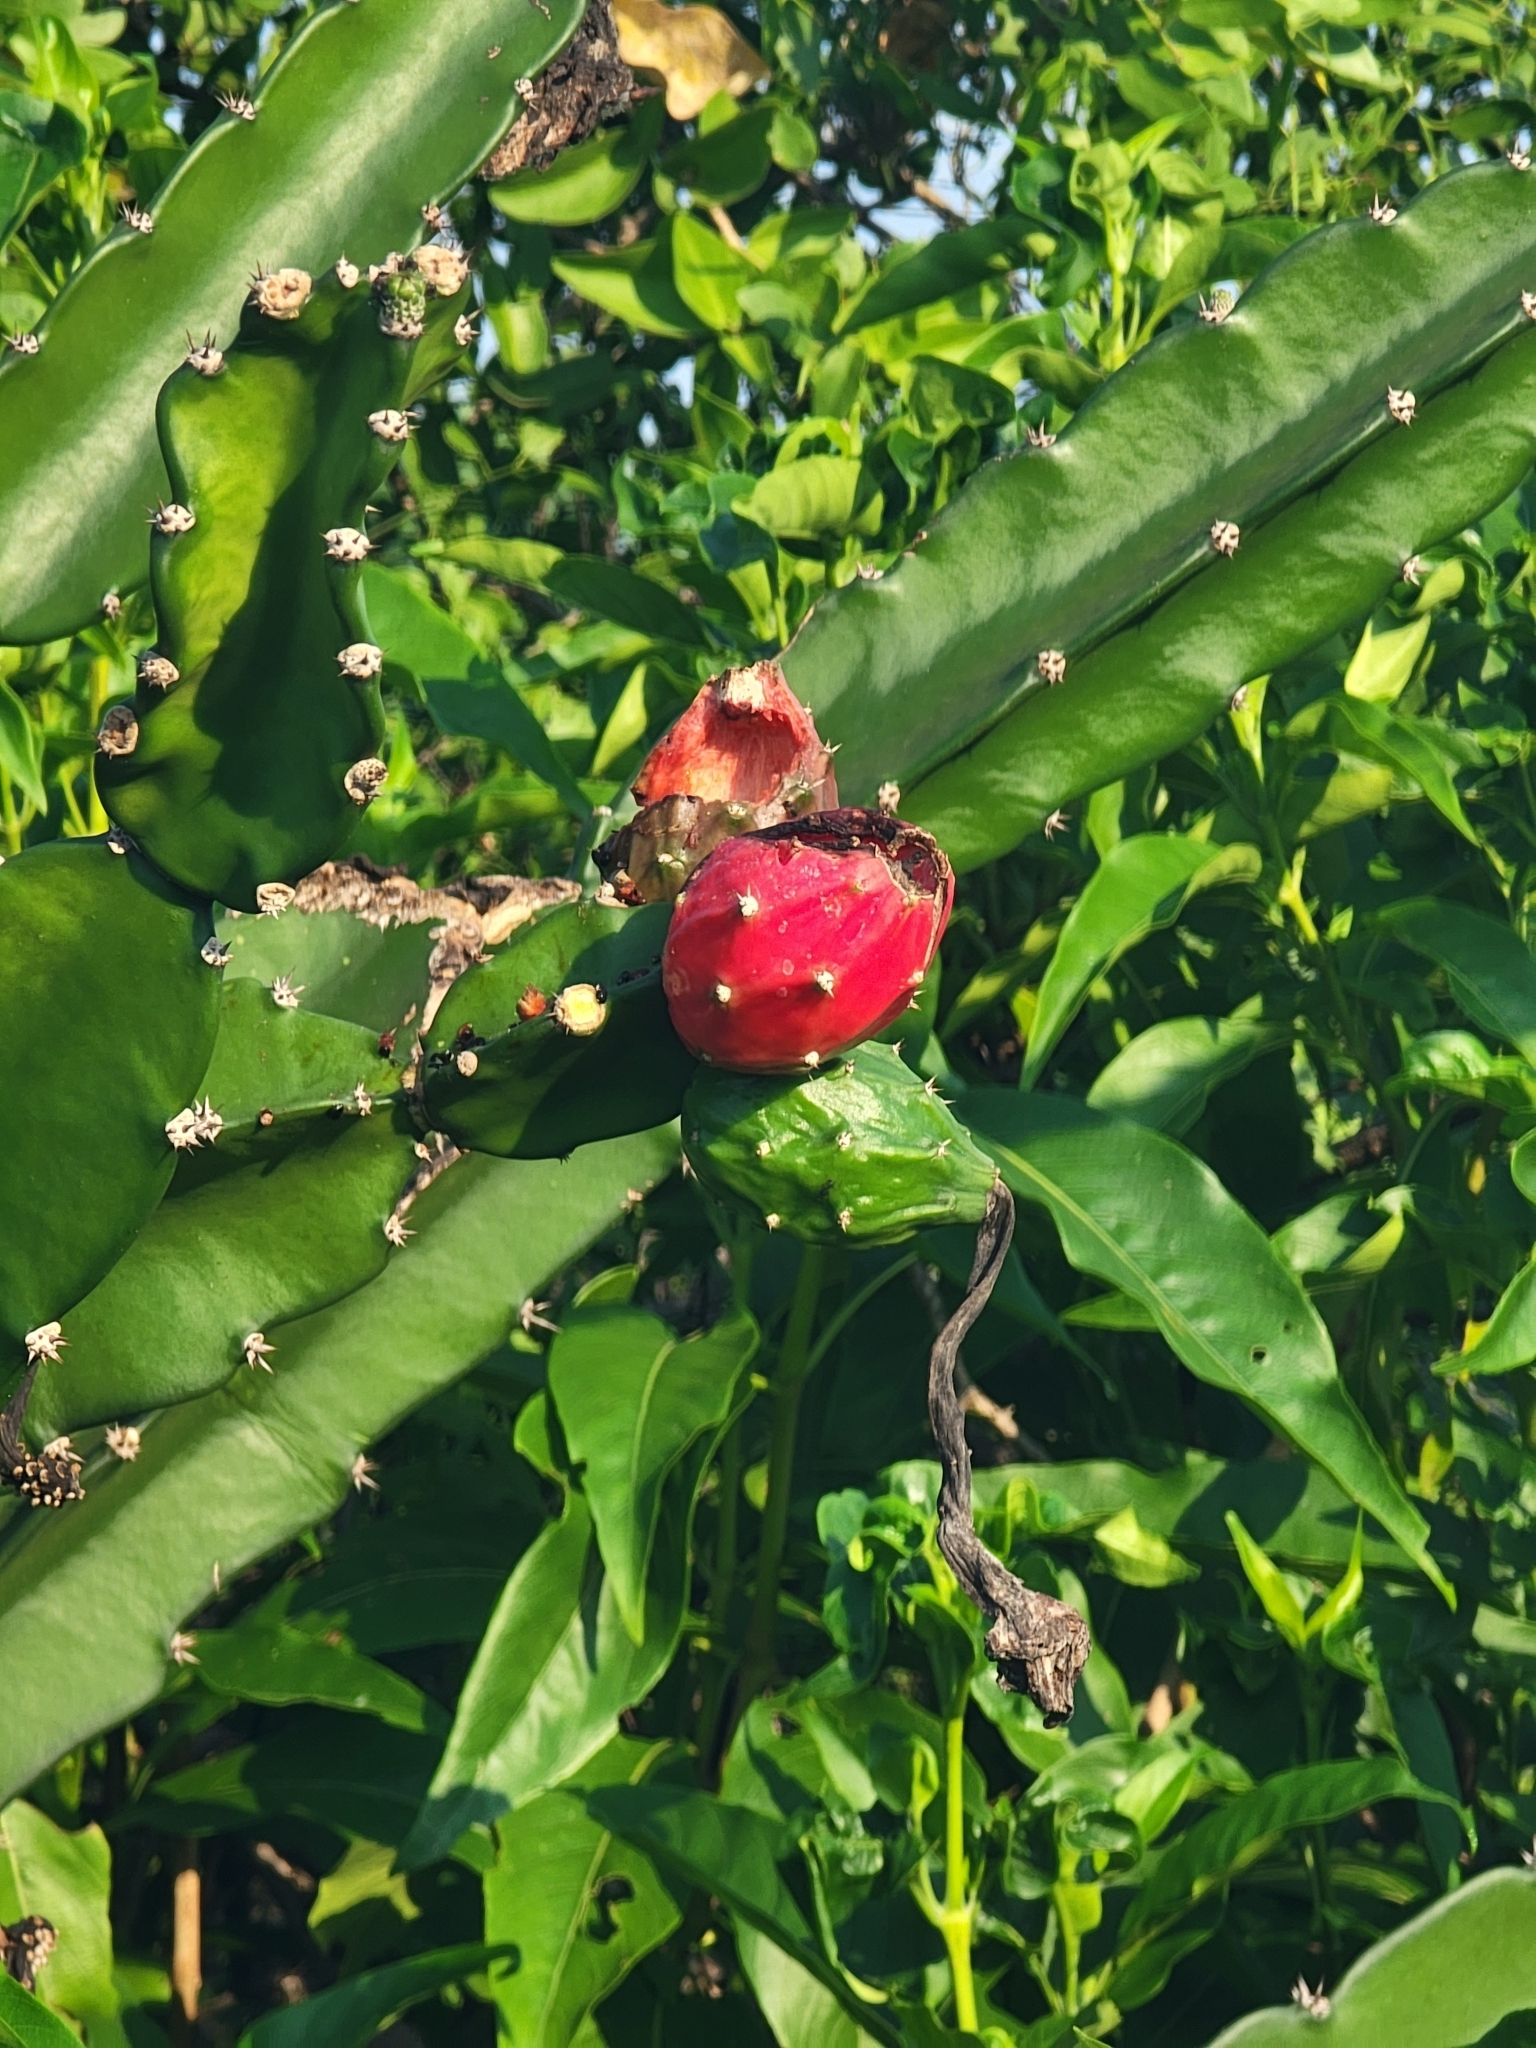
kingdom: Plantae
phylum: Tracheophyta
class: Magnoliopsida
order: Caryophyllales
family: Cactaceae
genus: Opuntia
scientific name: Opuntia dejecta
